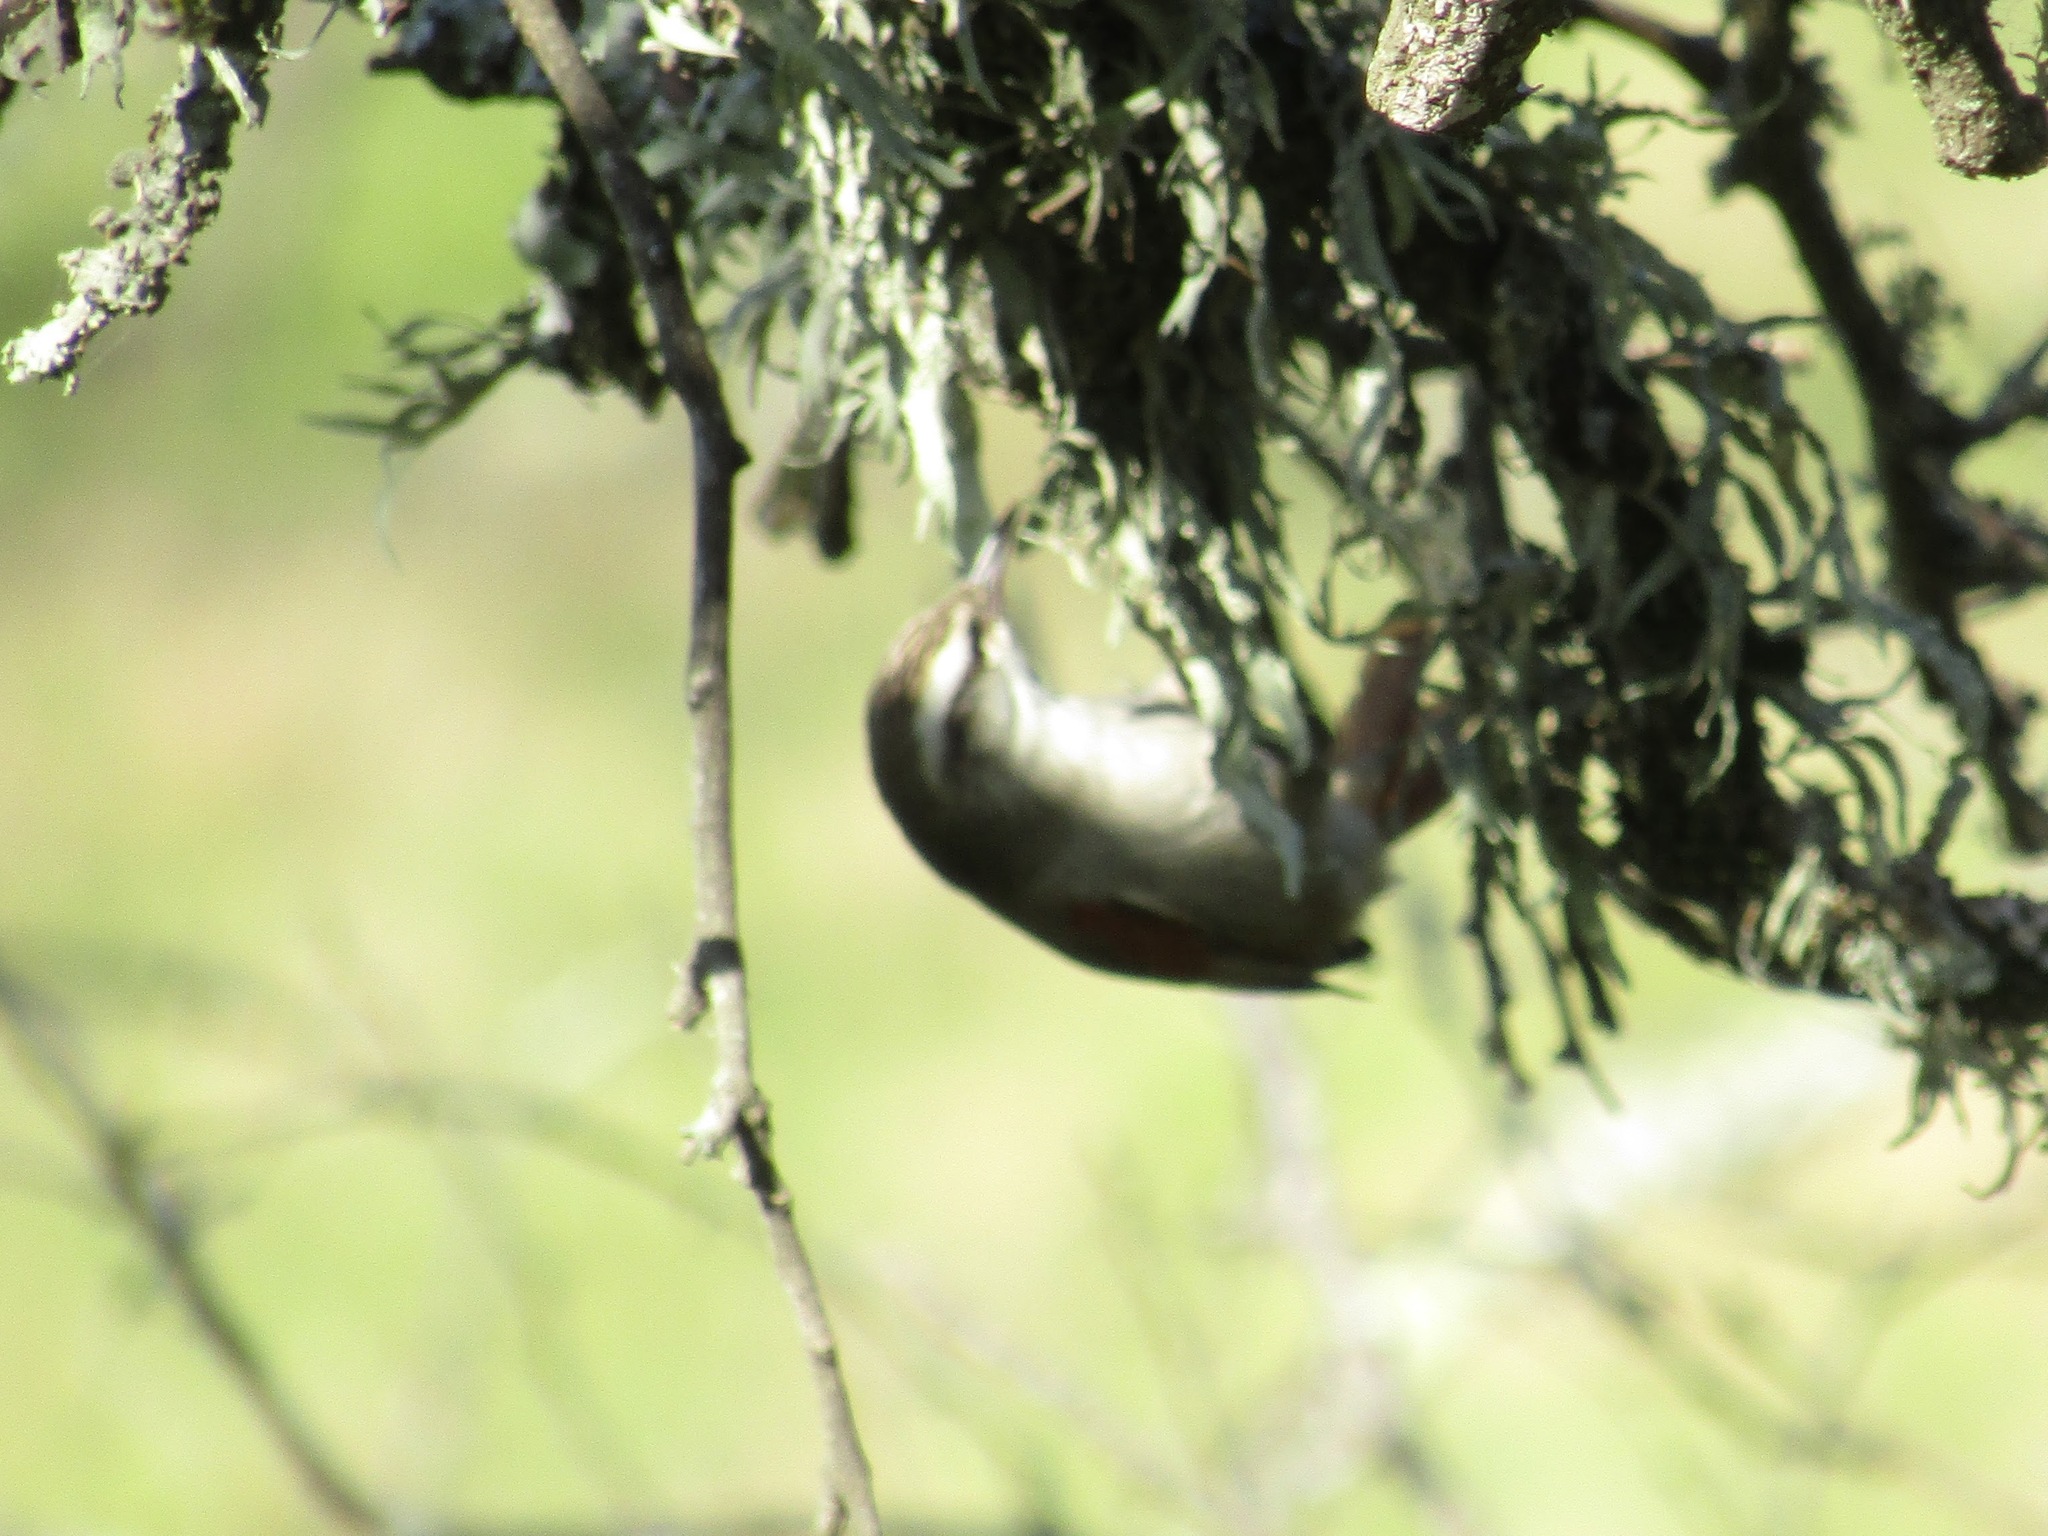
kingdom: Animalia
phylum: Chordata
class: Aves
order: Passeriformes
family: Furnariidae
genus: Cranioleuca
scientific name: Cranioleuca pyrrhophia
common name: Stripe-crowned spinetail
